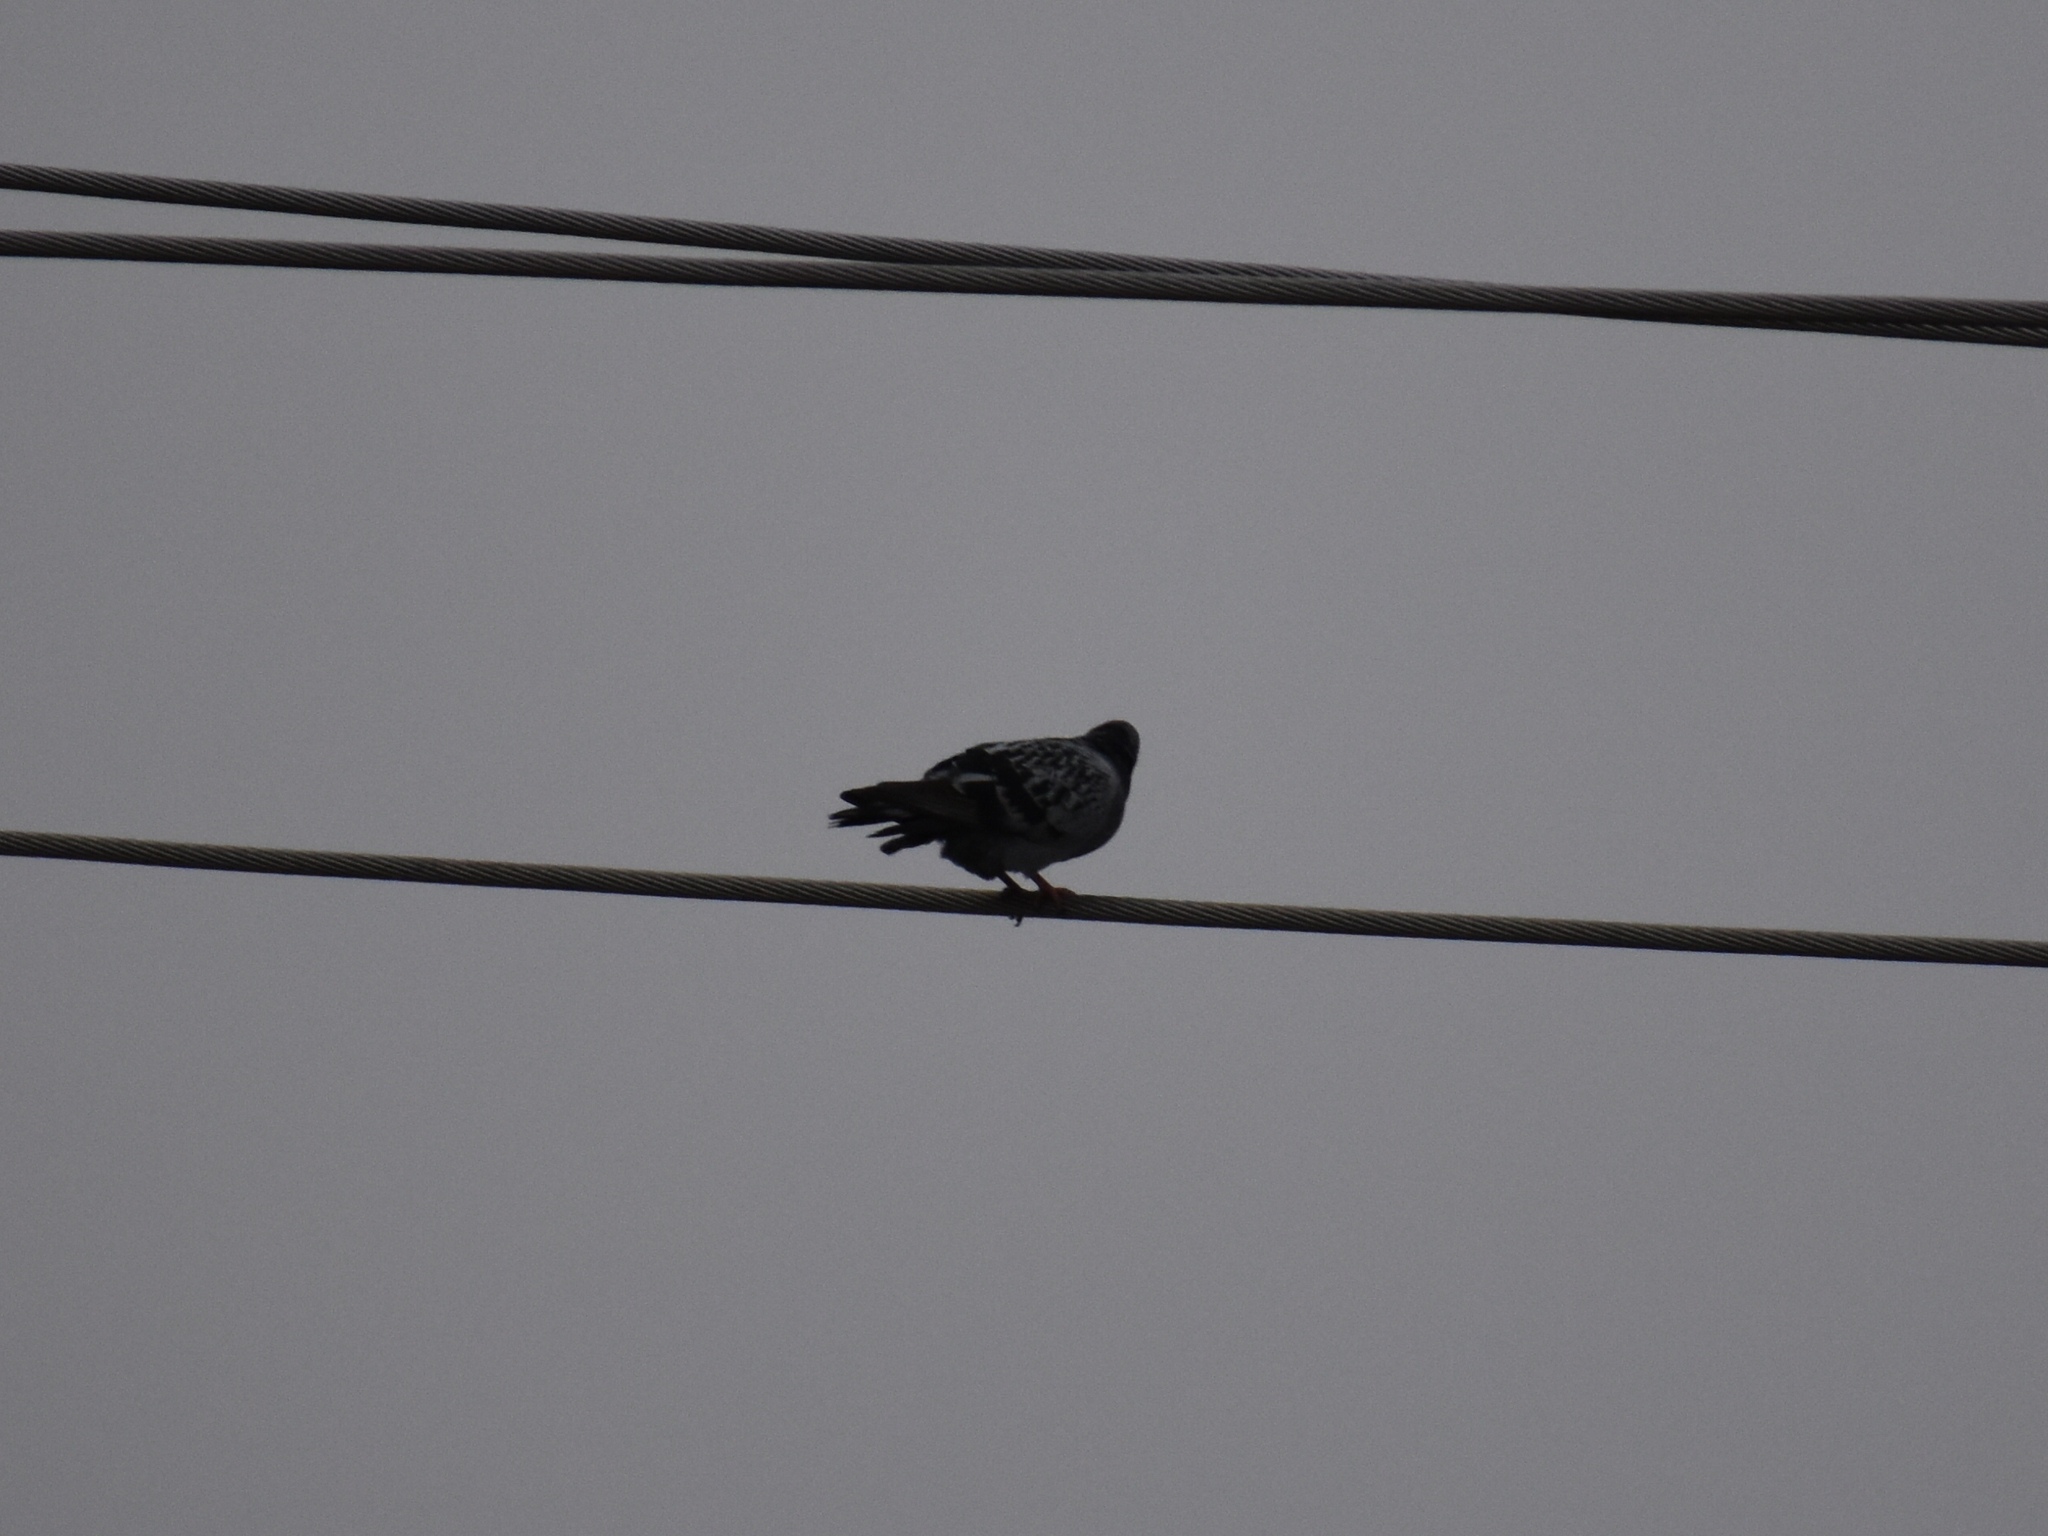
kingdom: Animalia
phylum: Chordata
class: Aves
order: Columbiformes
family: Columbidae
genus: Columba
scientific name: Columba livia
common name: Rock pigeon
